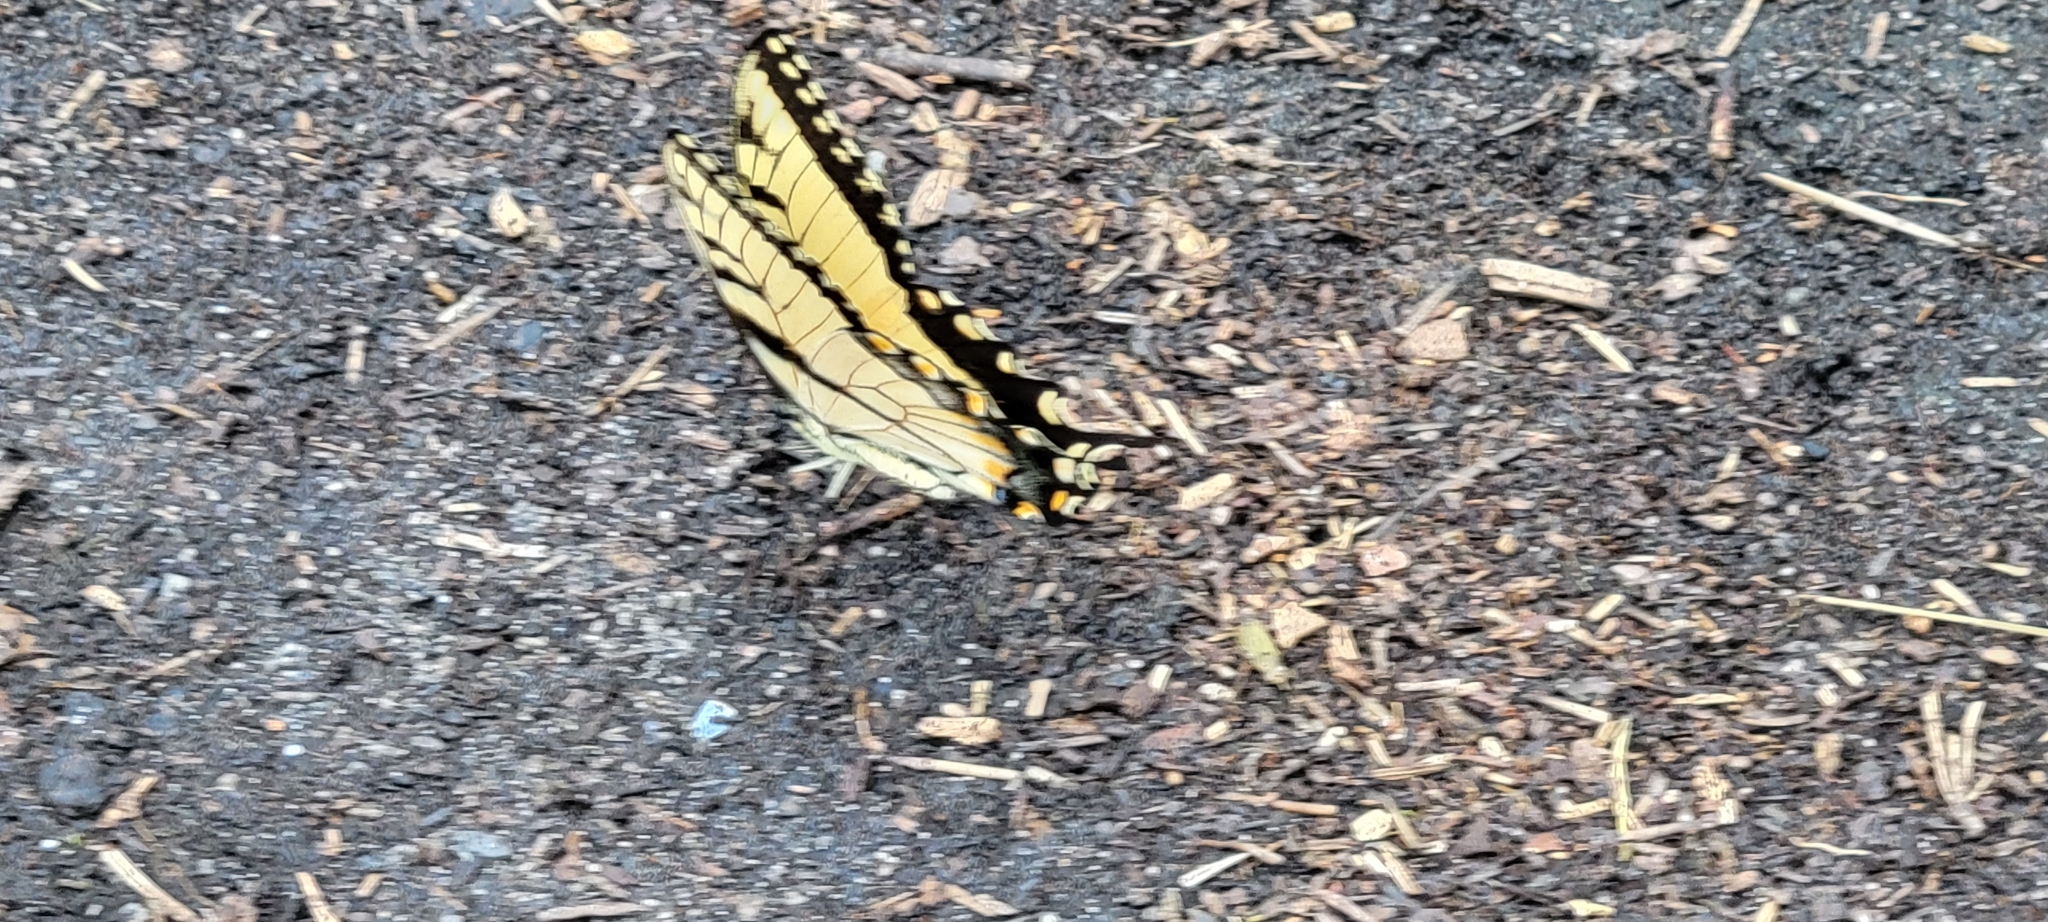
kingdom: Animalia
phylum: Arthropoda
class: Insecta
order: Lepidoptera
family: Papilionidae
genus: Papilio
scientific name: Papilio glaucus
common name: Tiger swallowtail
